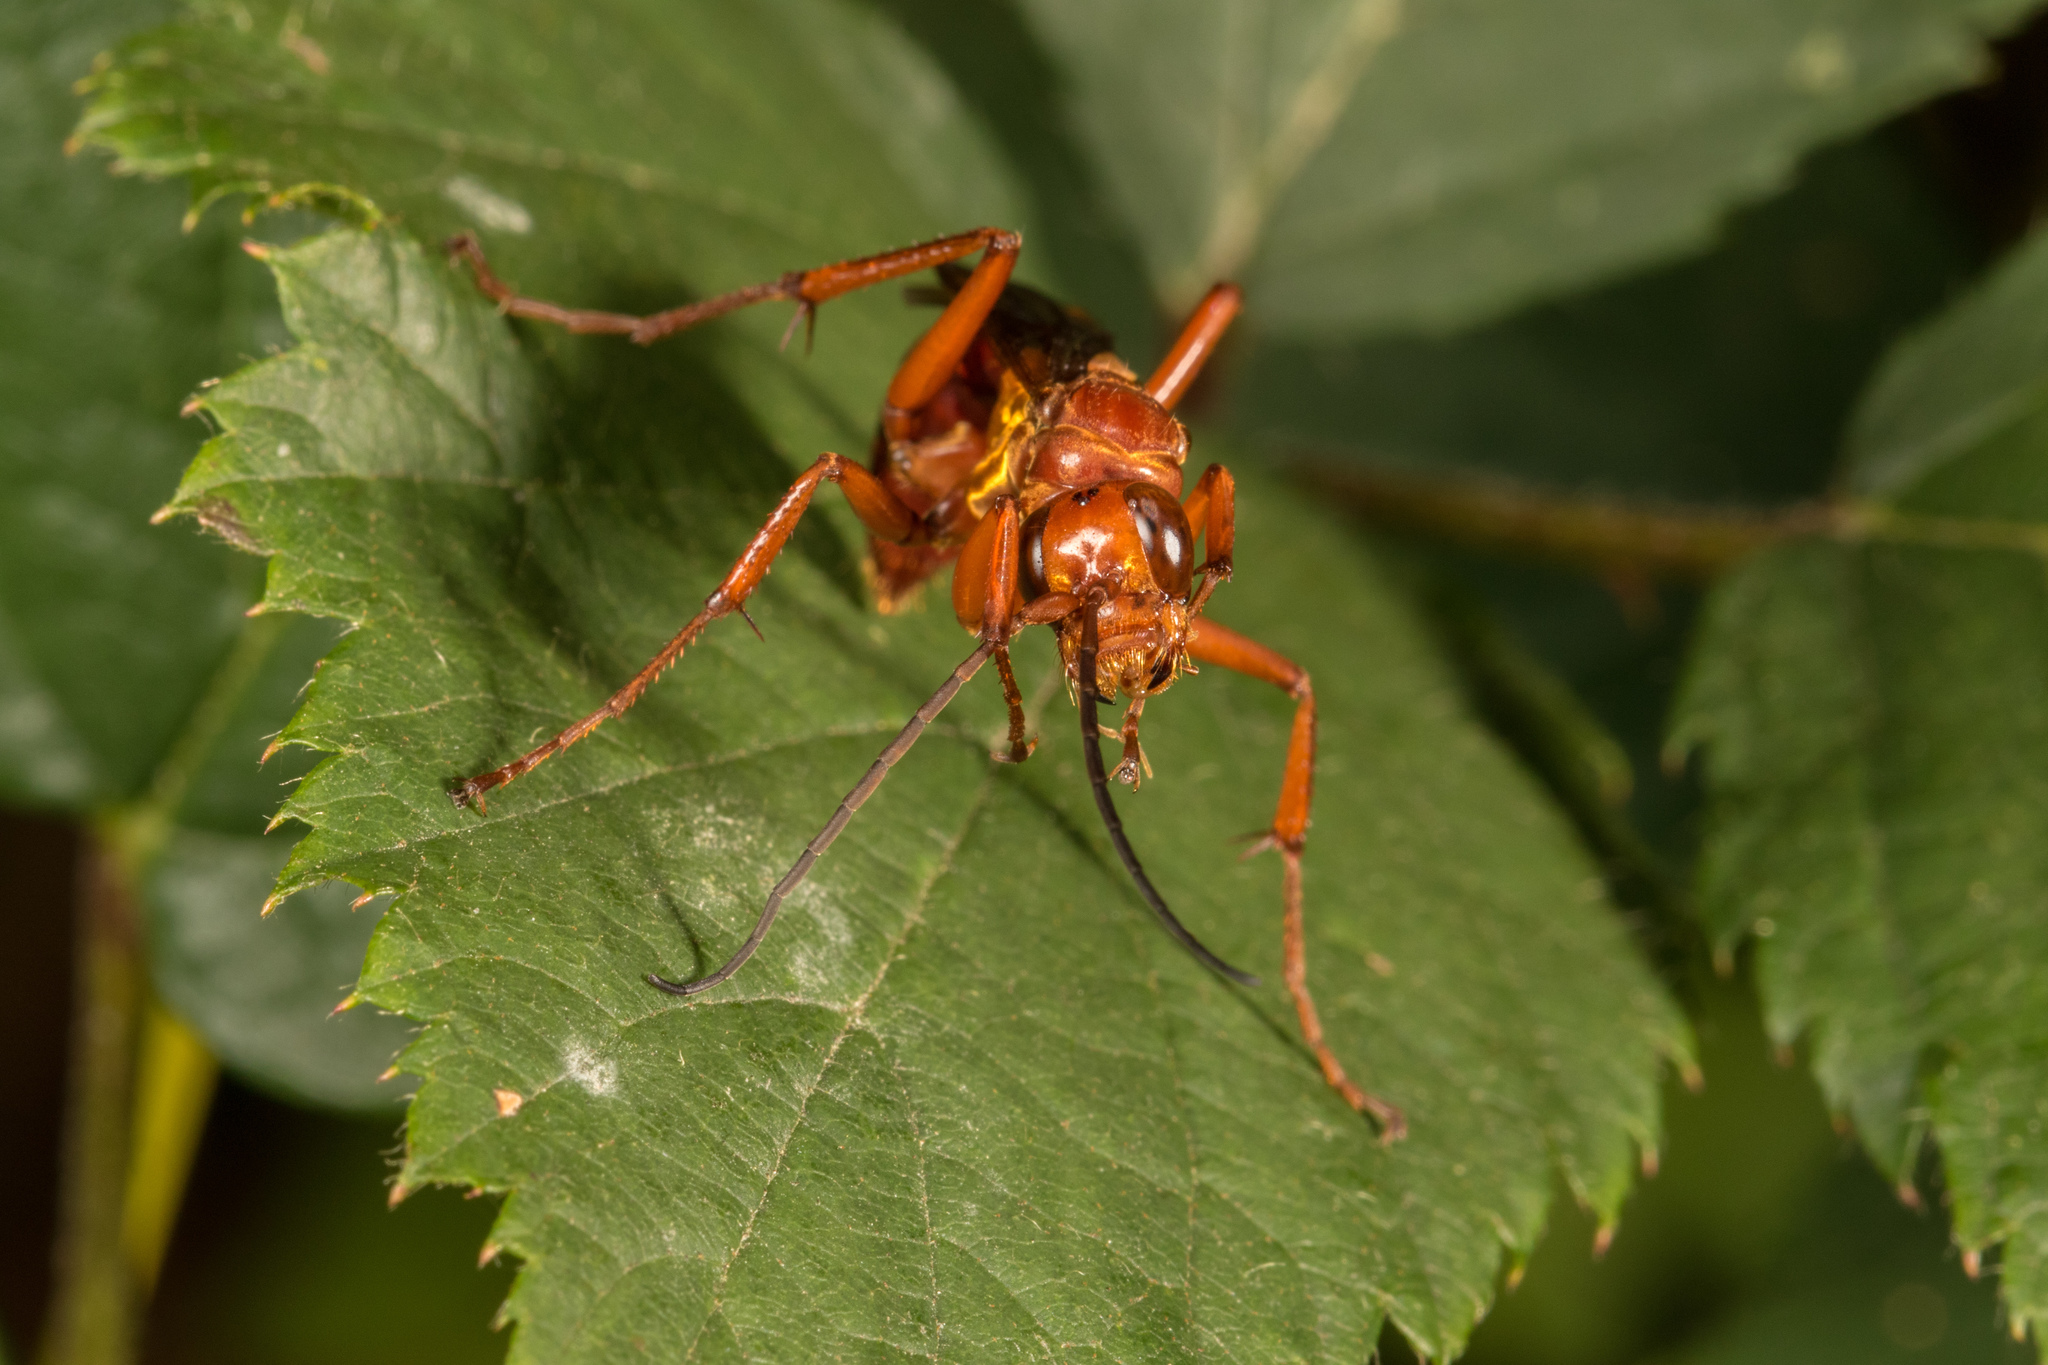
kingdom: Animalia
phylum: Arthropoda
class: Insecta
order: Hymenoptera
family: Pompilidae
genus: Sphictostethus
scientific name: Sphictostethus nitidus
